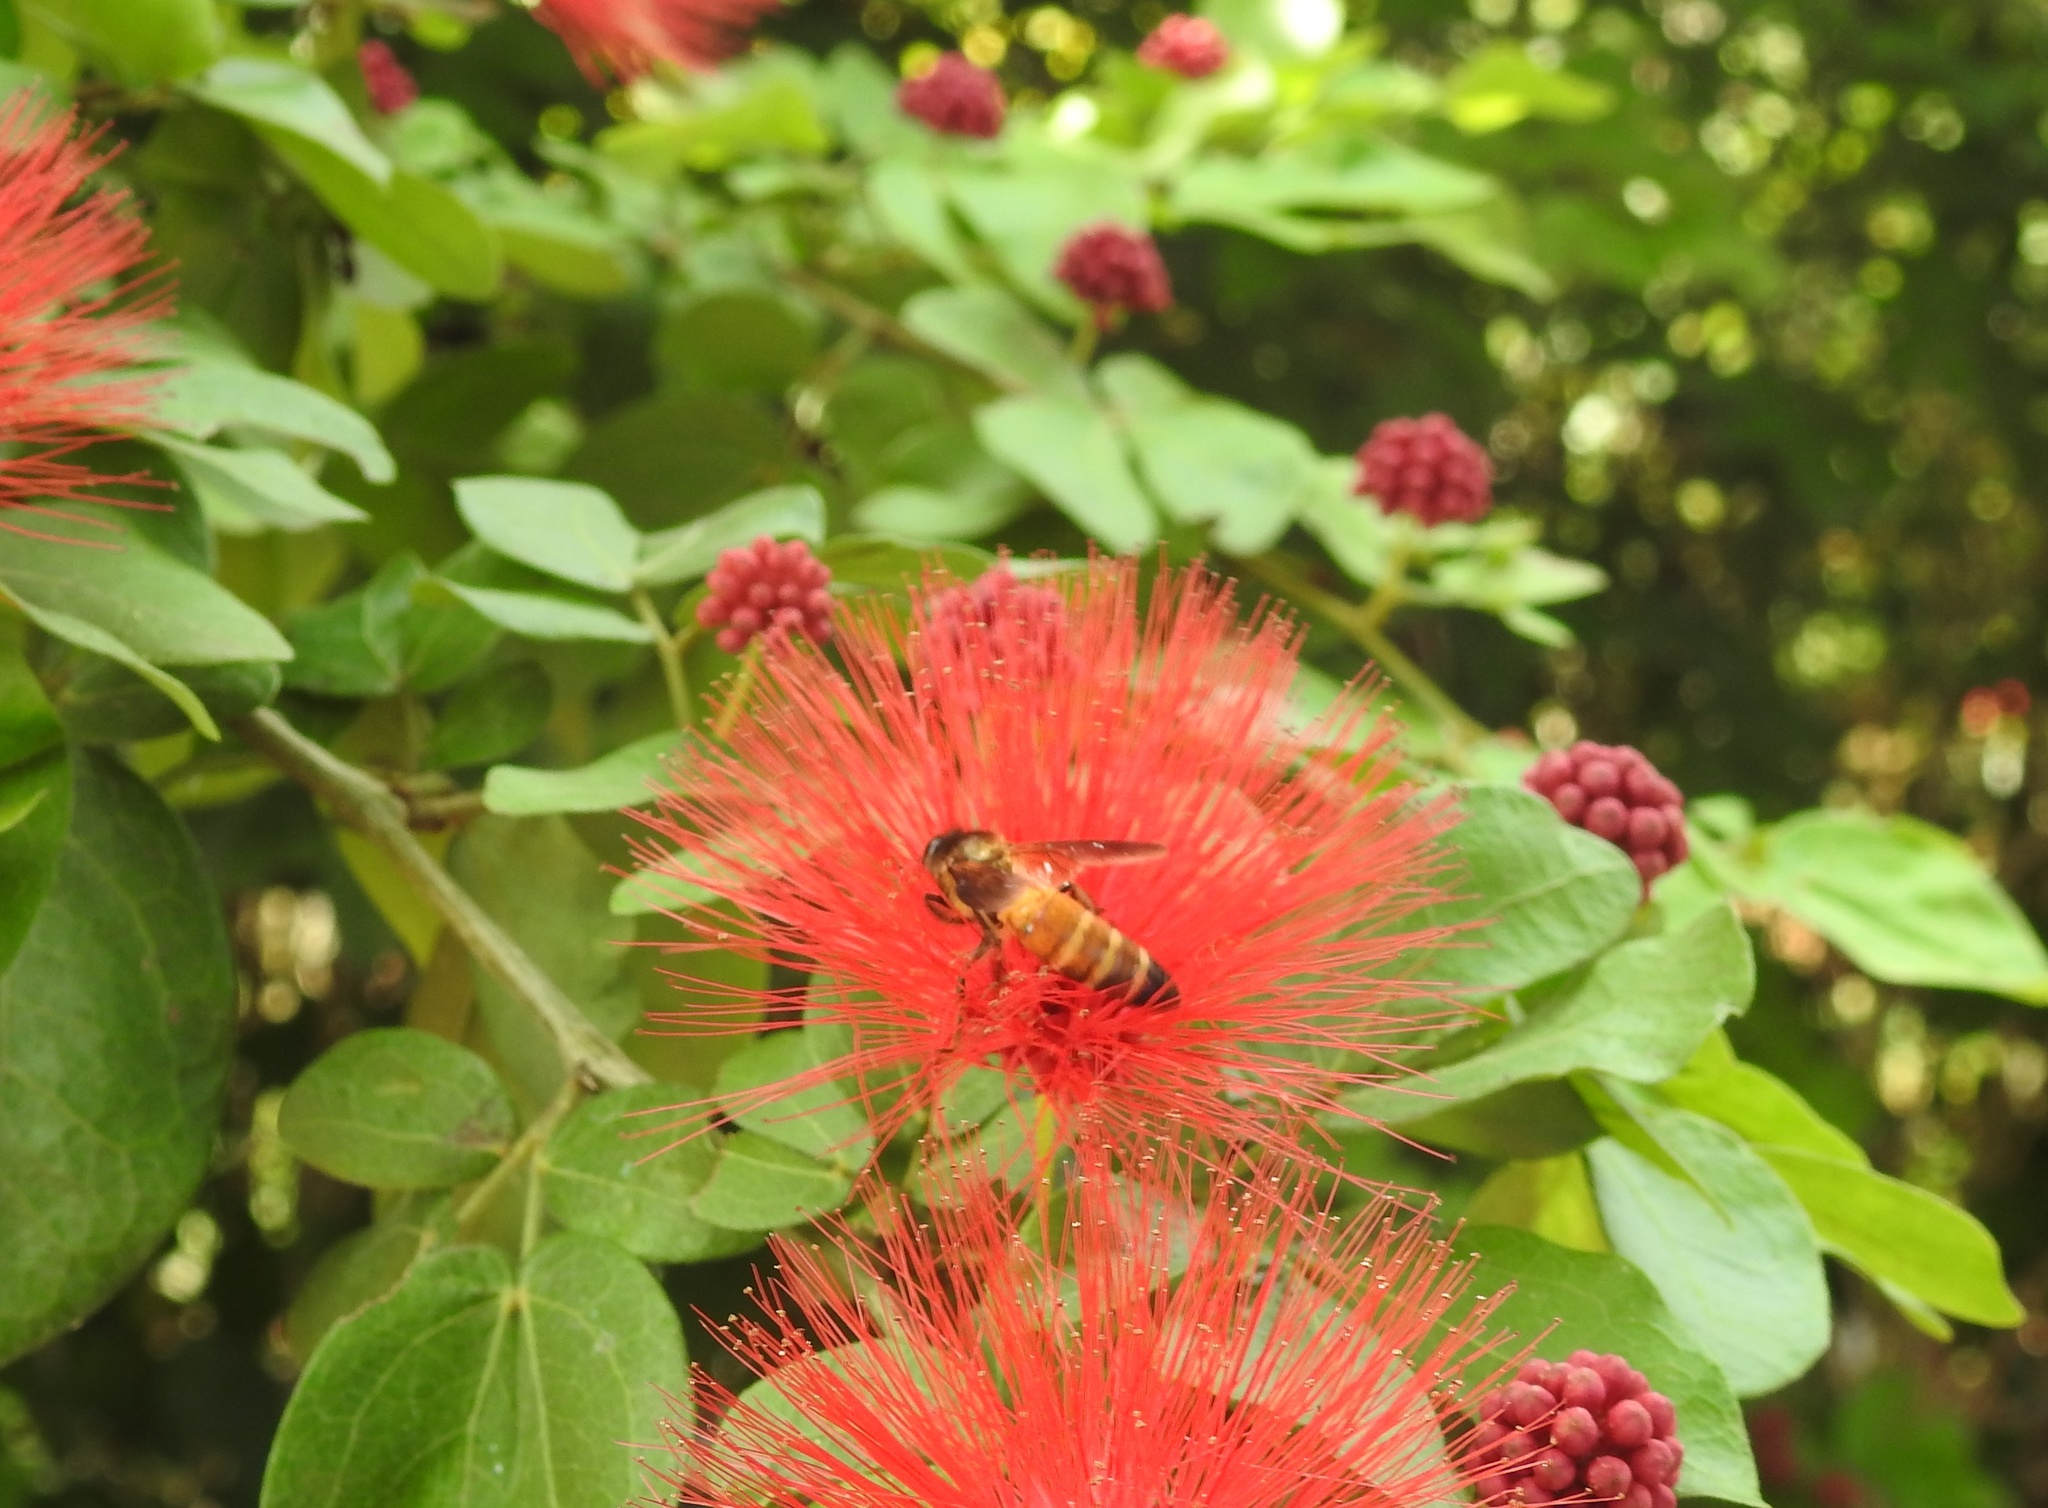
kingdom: Animalia
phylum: Arthropoda
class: Insecta
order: Hymenoptera
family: Apidae
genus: Apis
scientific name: Apis dorsata
